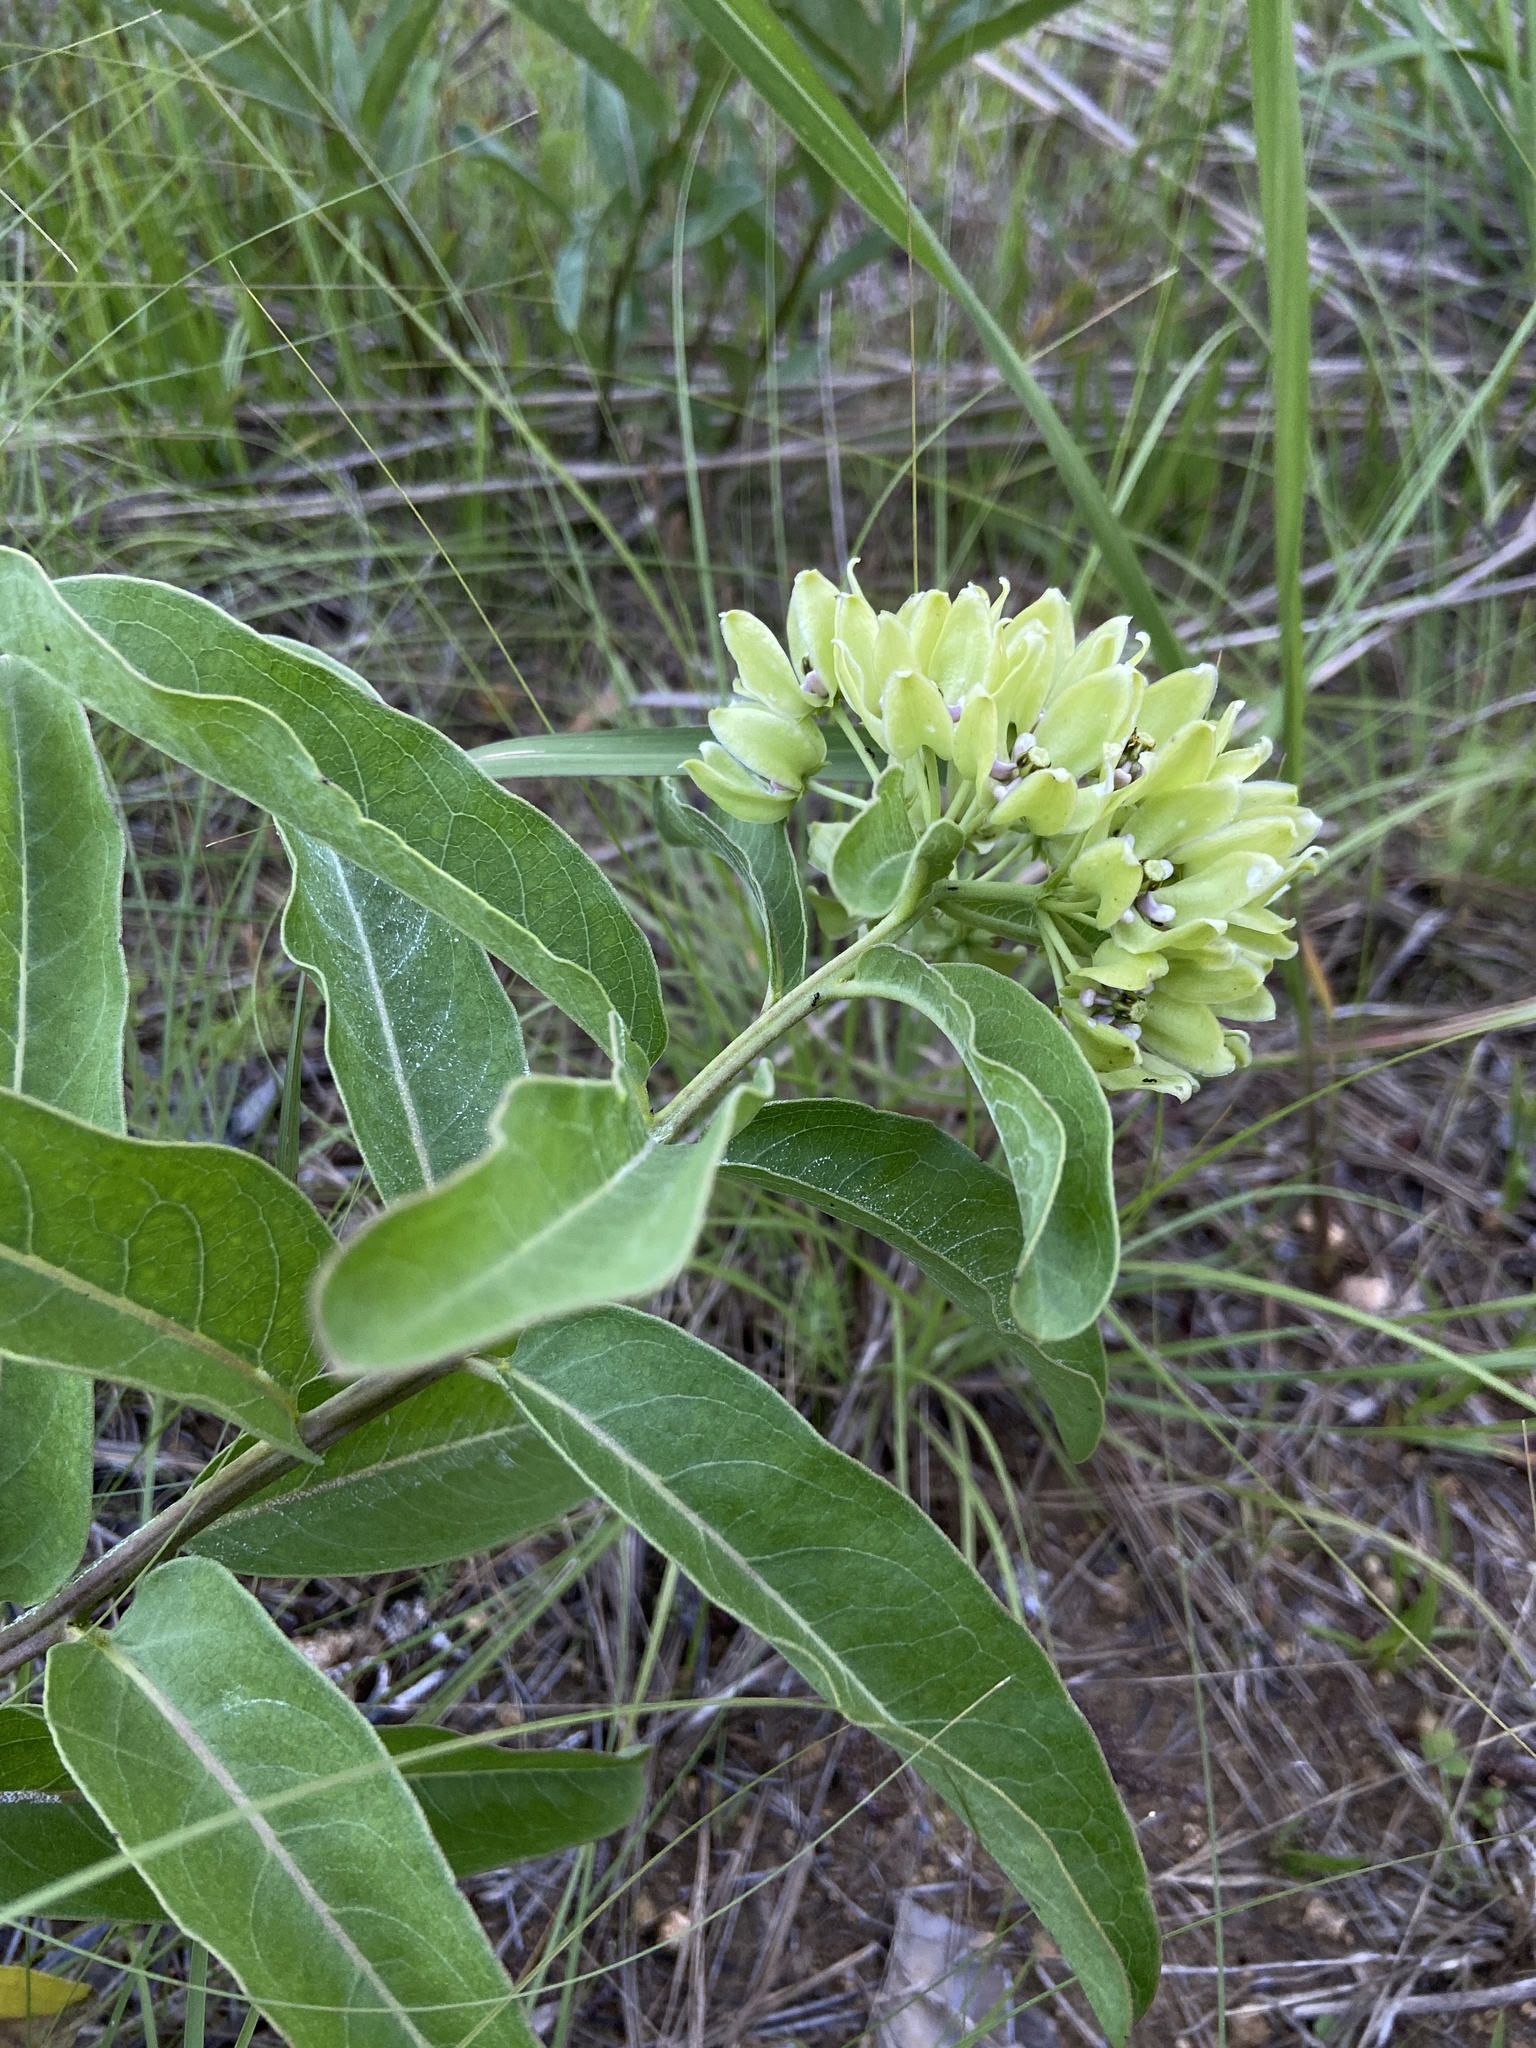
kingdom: Plantae
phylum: Tracheophyta
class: Magnoliopsida
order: Gentianales
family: Apocynaceae
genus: Asclepias
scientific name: Asclepias viridis
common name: Antelope-horns
